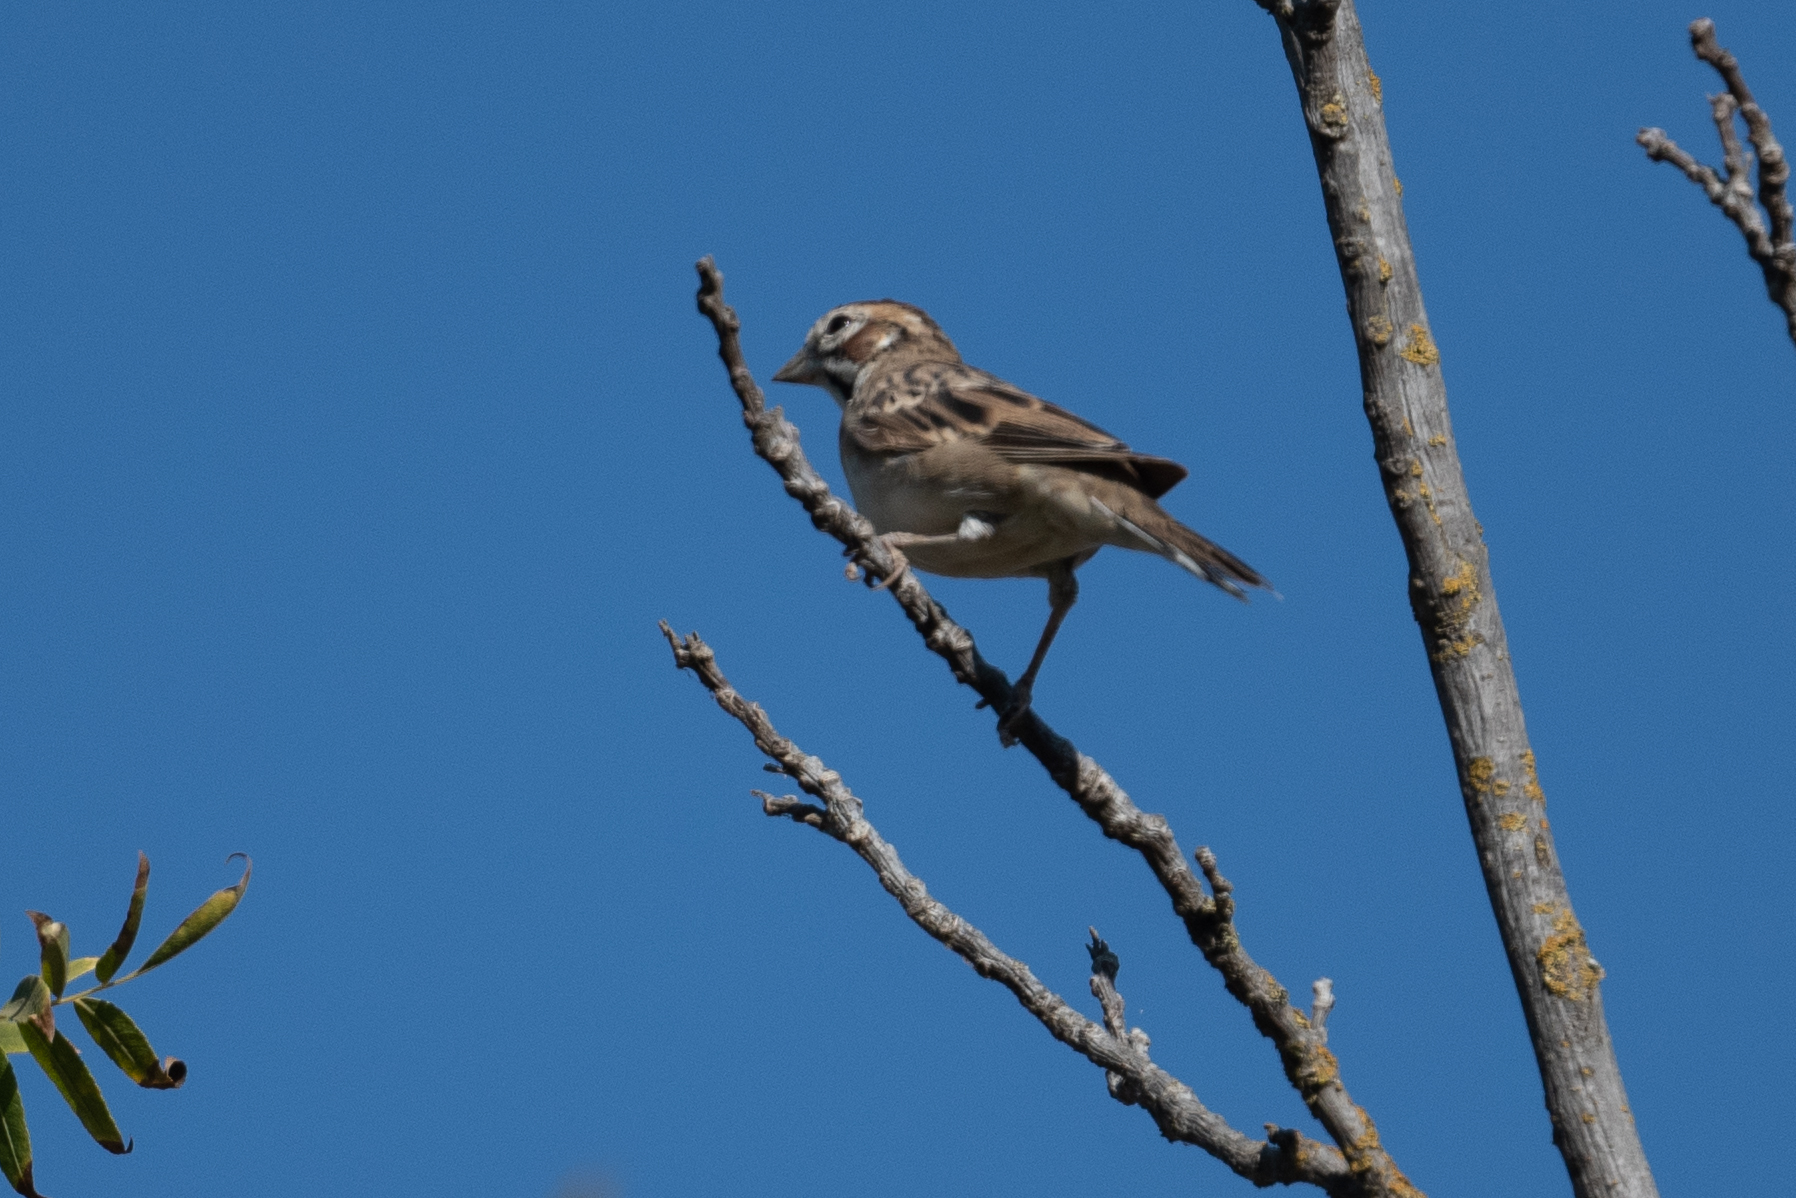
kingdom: Animalia
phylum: Chordata
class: Aves
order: Passeriformes
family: Passerellidae
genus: Chondestes
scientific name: Chondestes grammacus
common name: Lark sparrow
